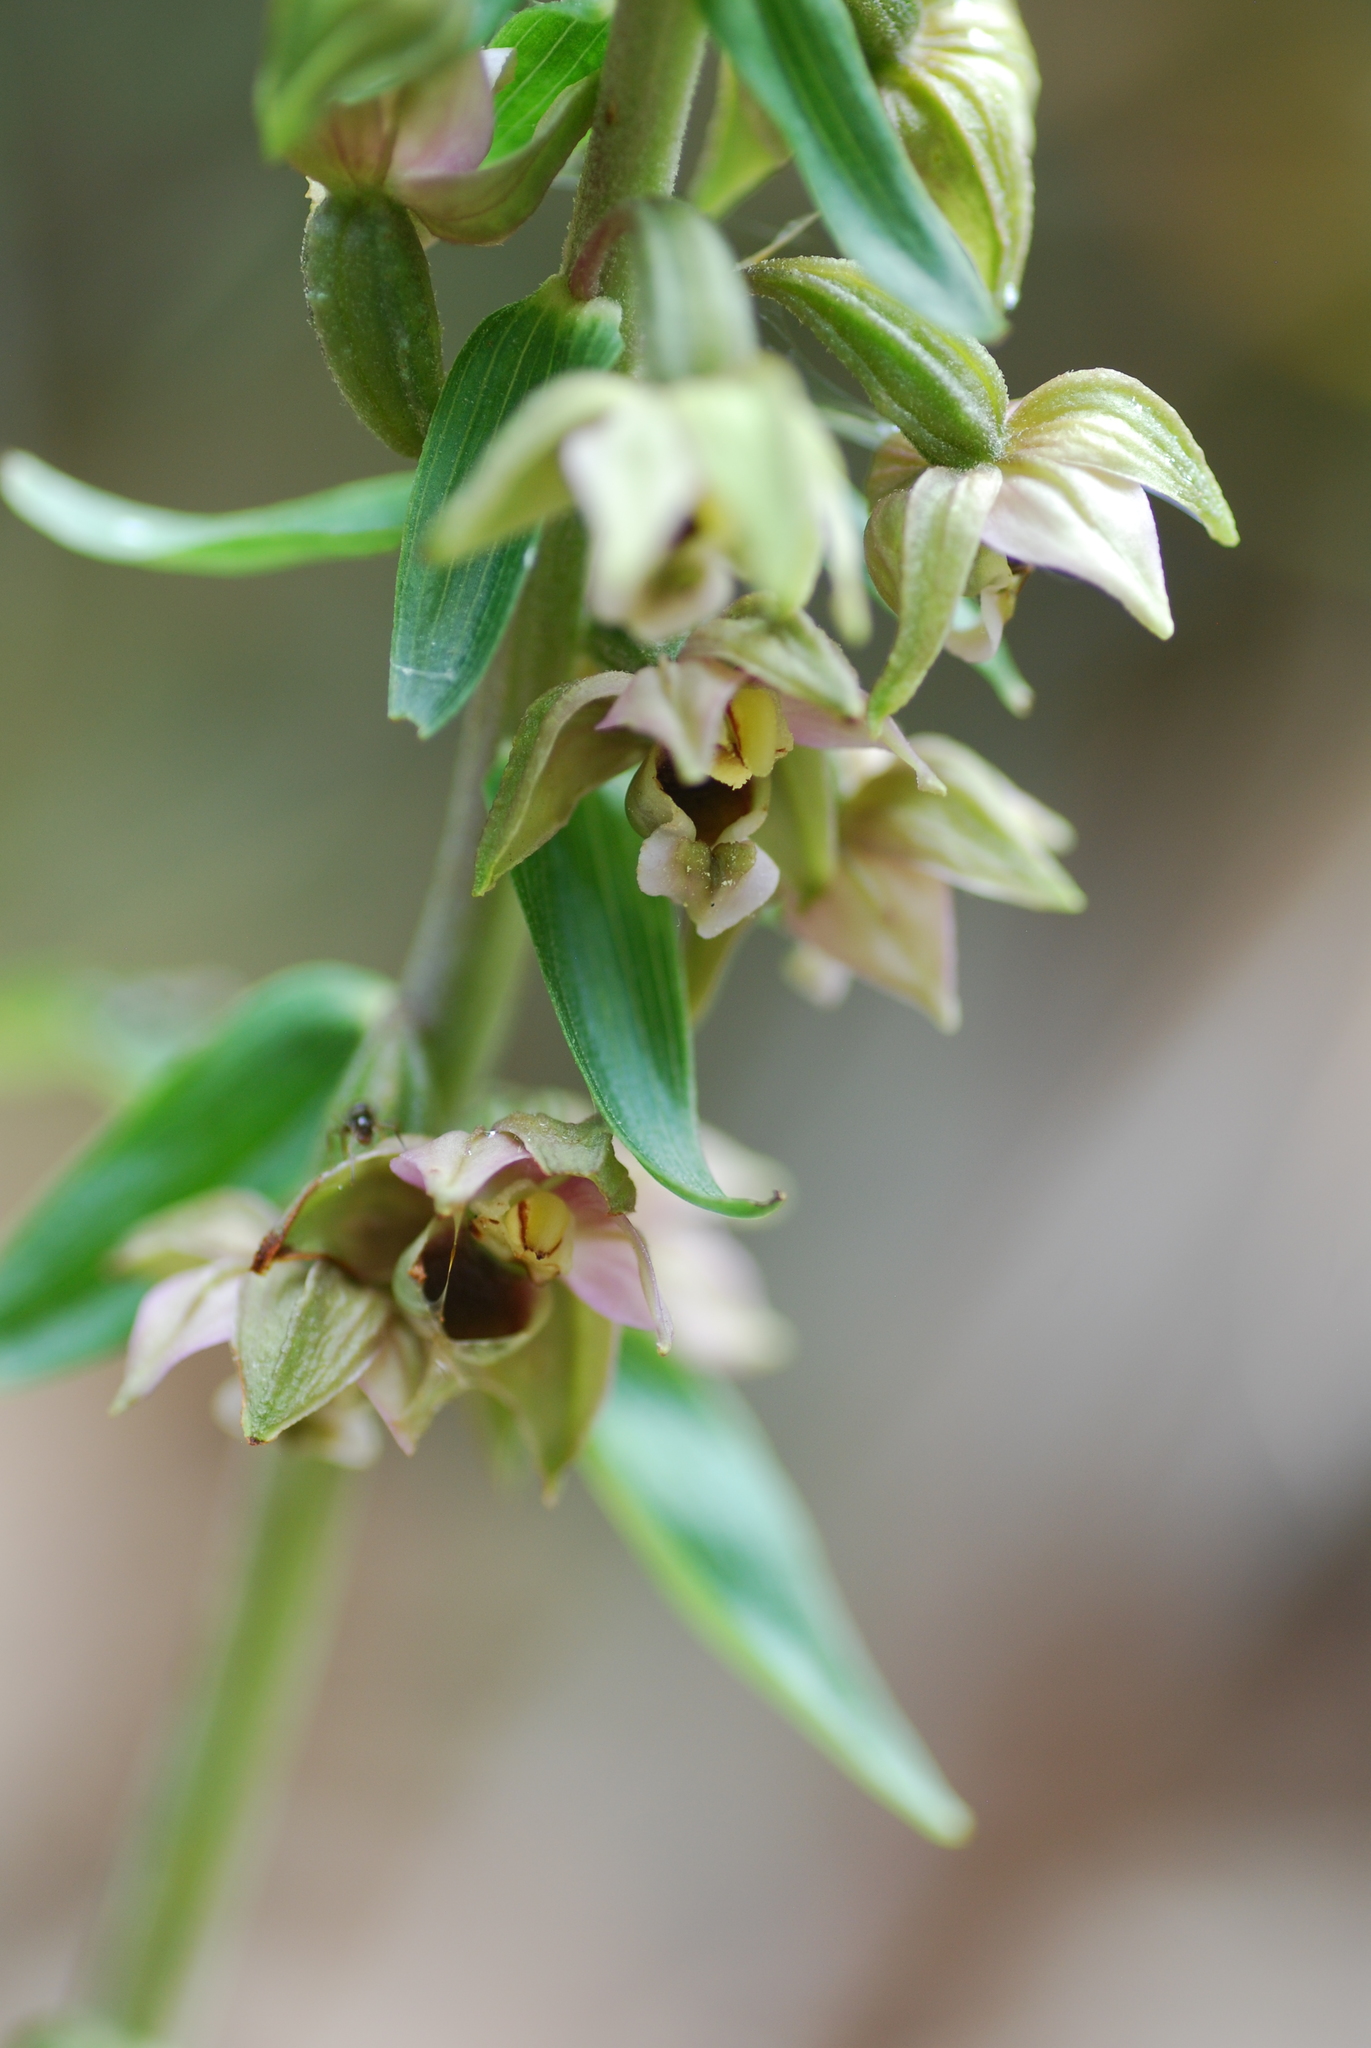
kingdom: Plantae
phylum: Tracheophyta
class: Liliopsida
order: Asparagales
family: Orchidaceae
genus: Epipactis
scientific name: Epipactis helleborine
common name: Broad-leaved helleborine
